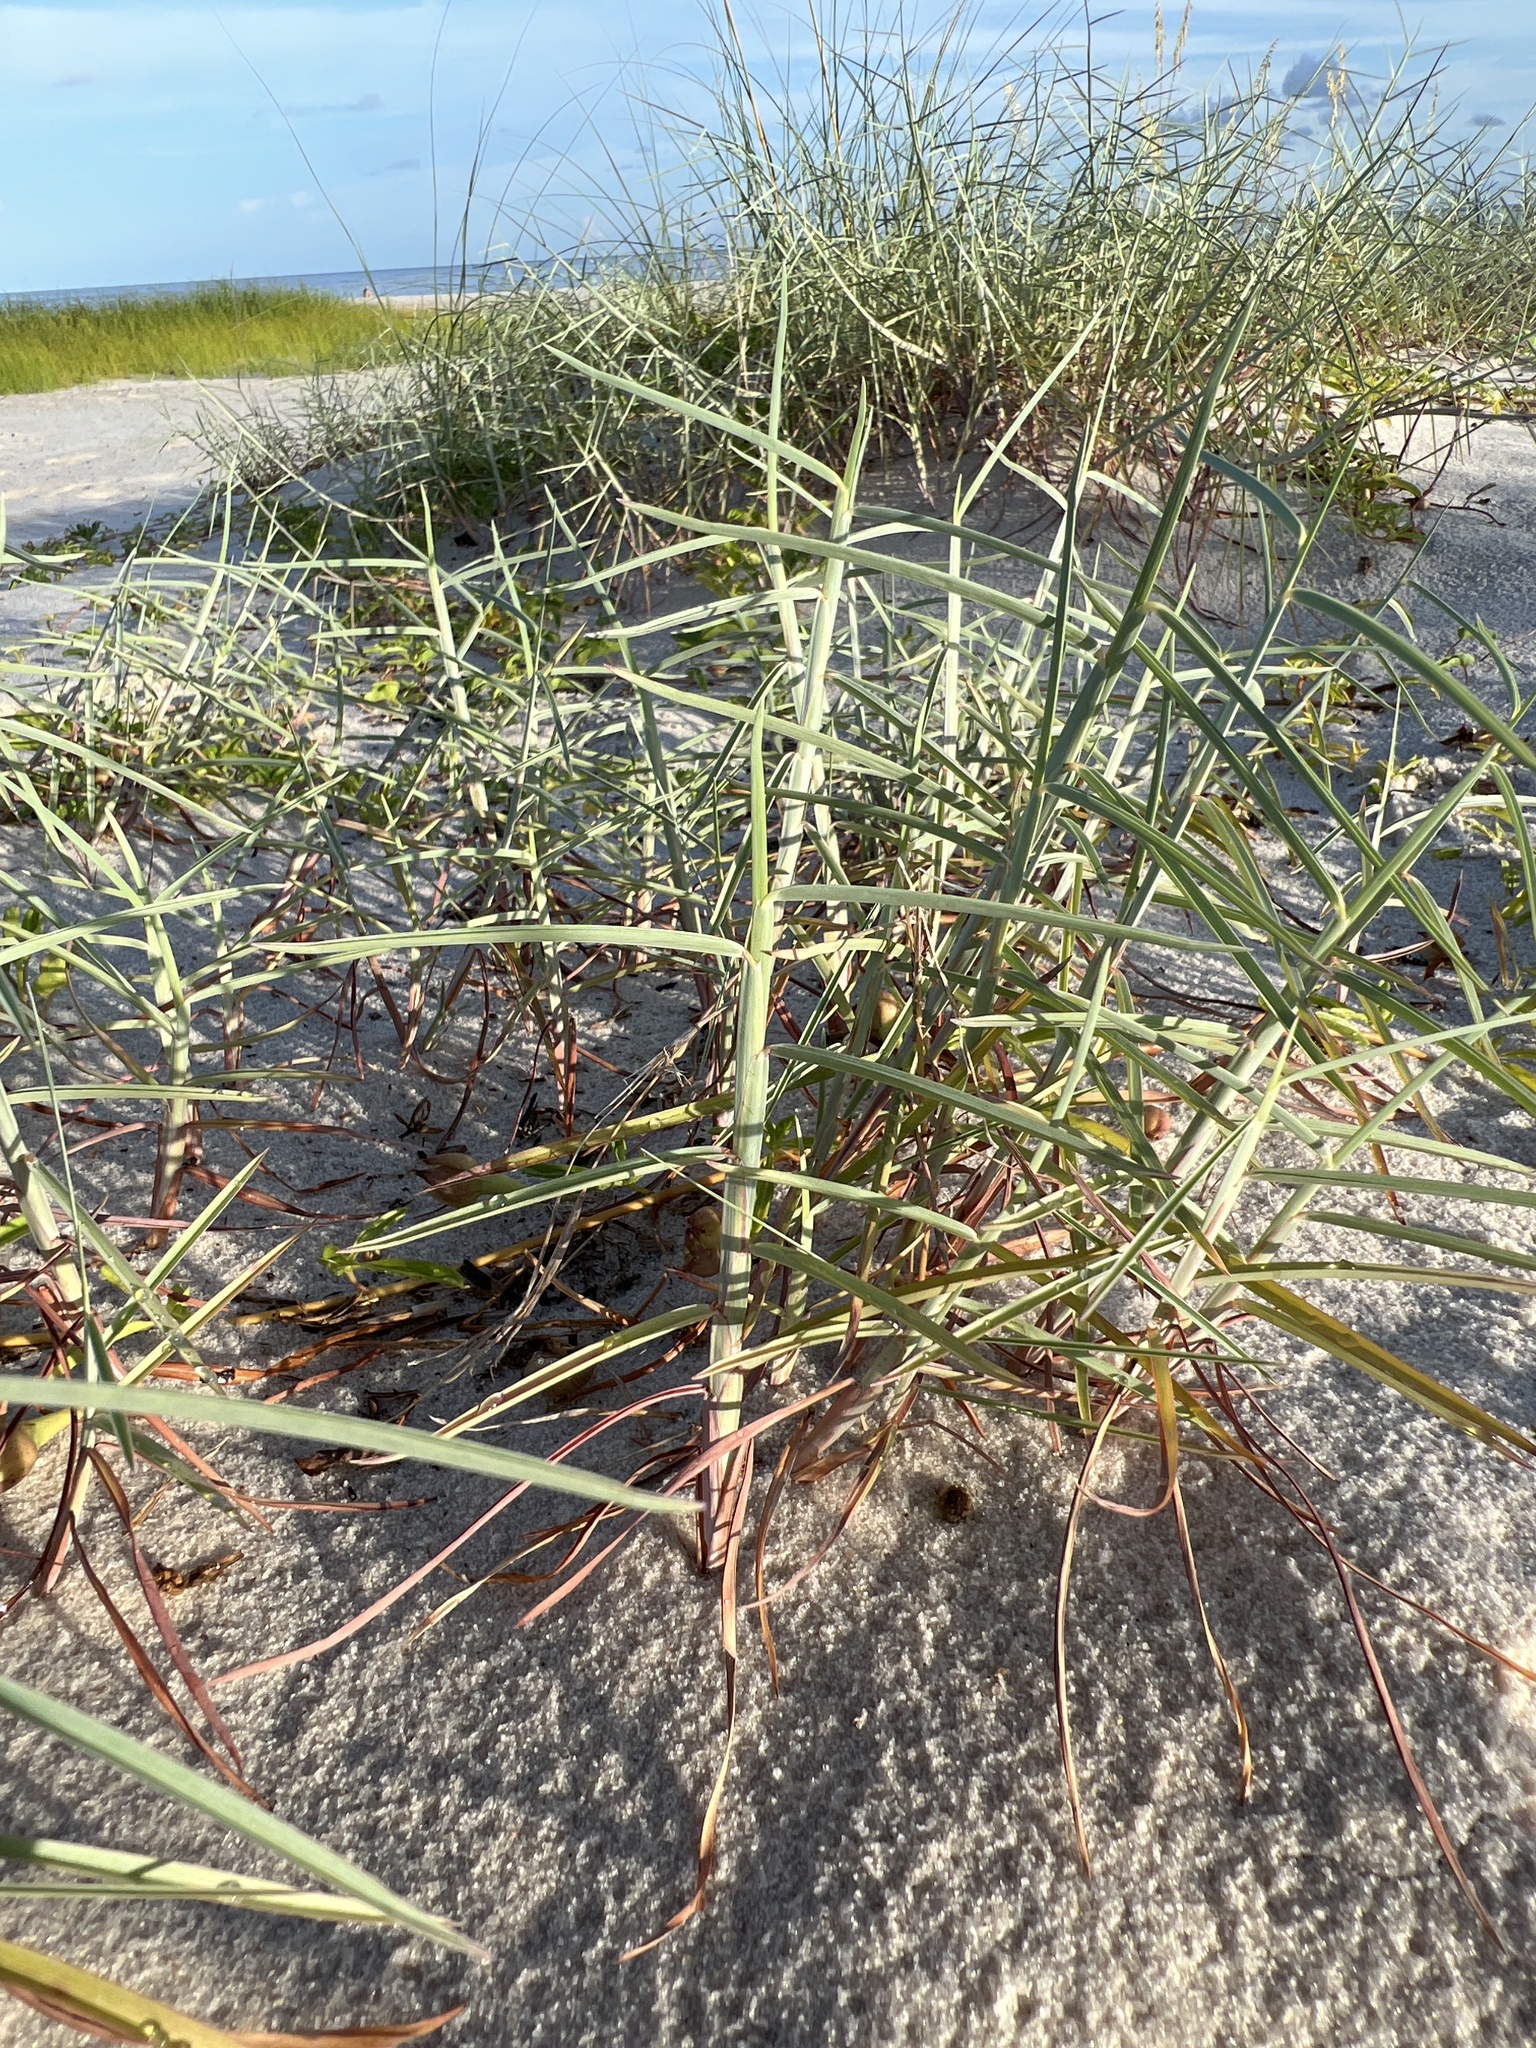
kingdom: Plantae
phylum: Tracheophyta
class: Liliopsida
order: Poales
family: Poaceae
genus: Schizachyrium
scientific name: Schizachyrium maritimum
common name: Gulf bluestem
